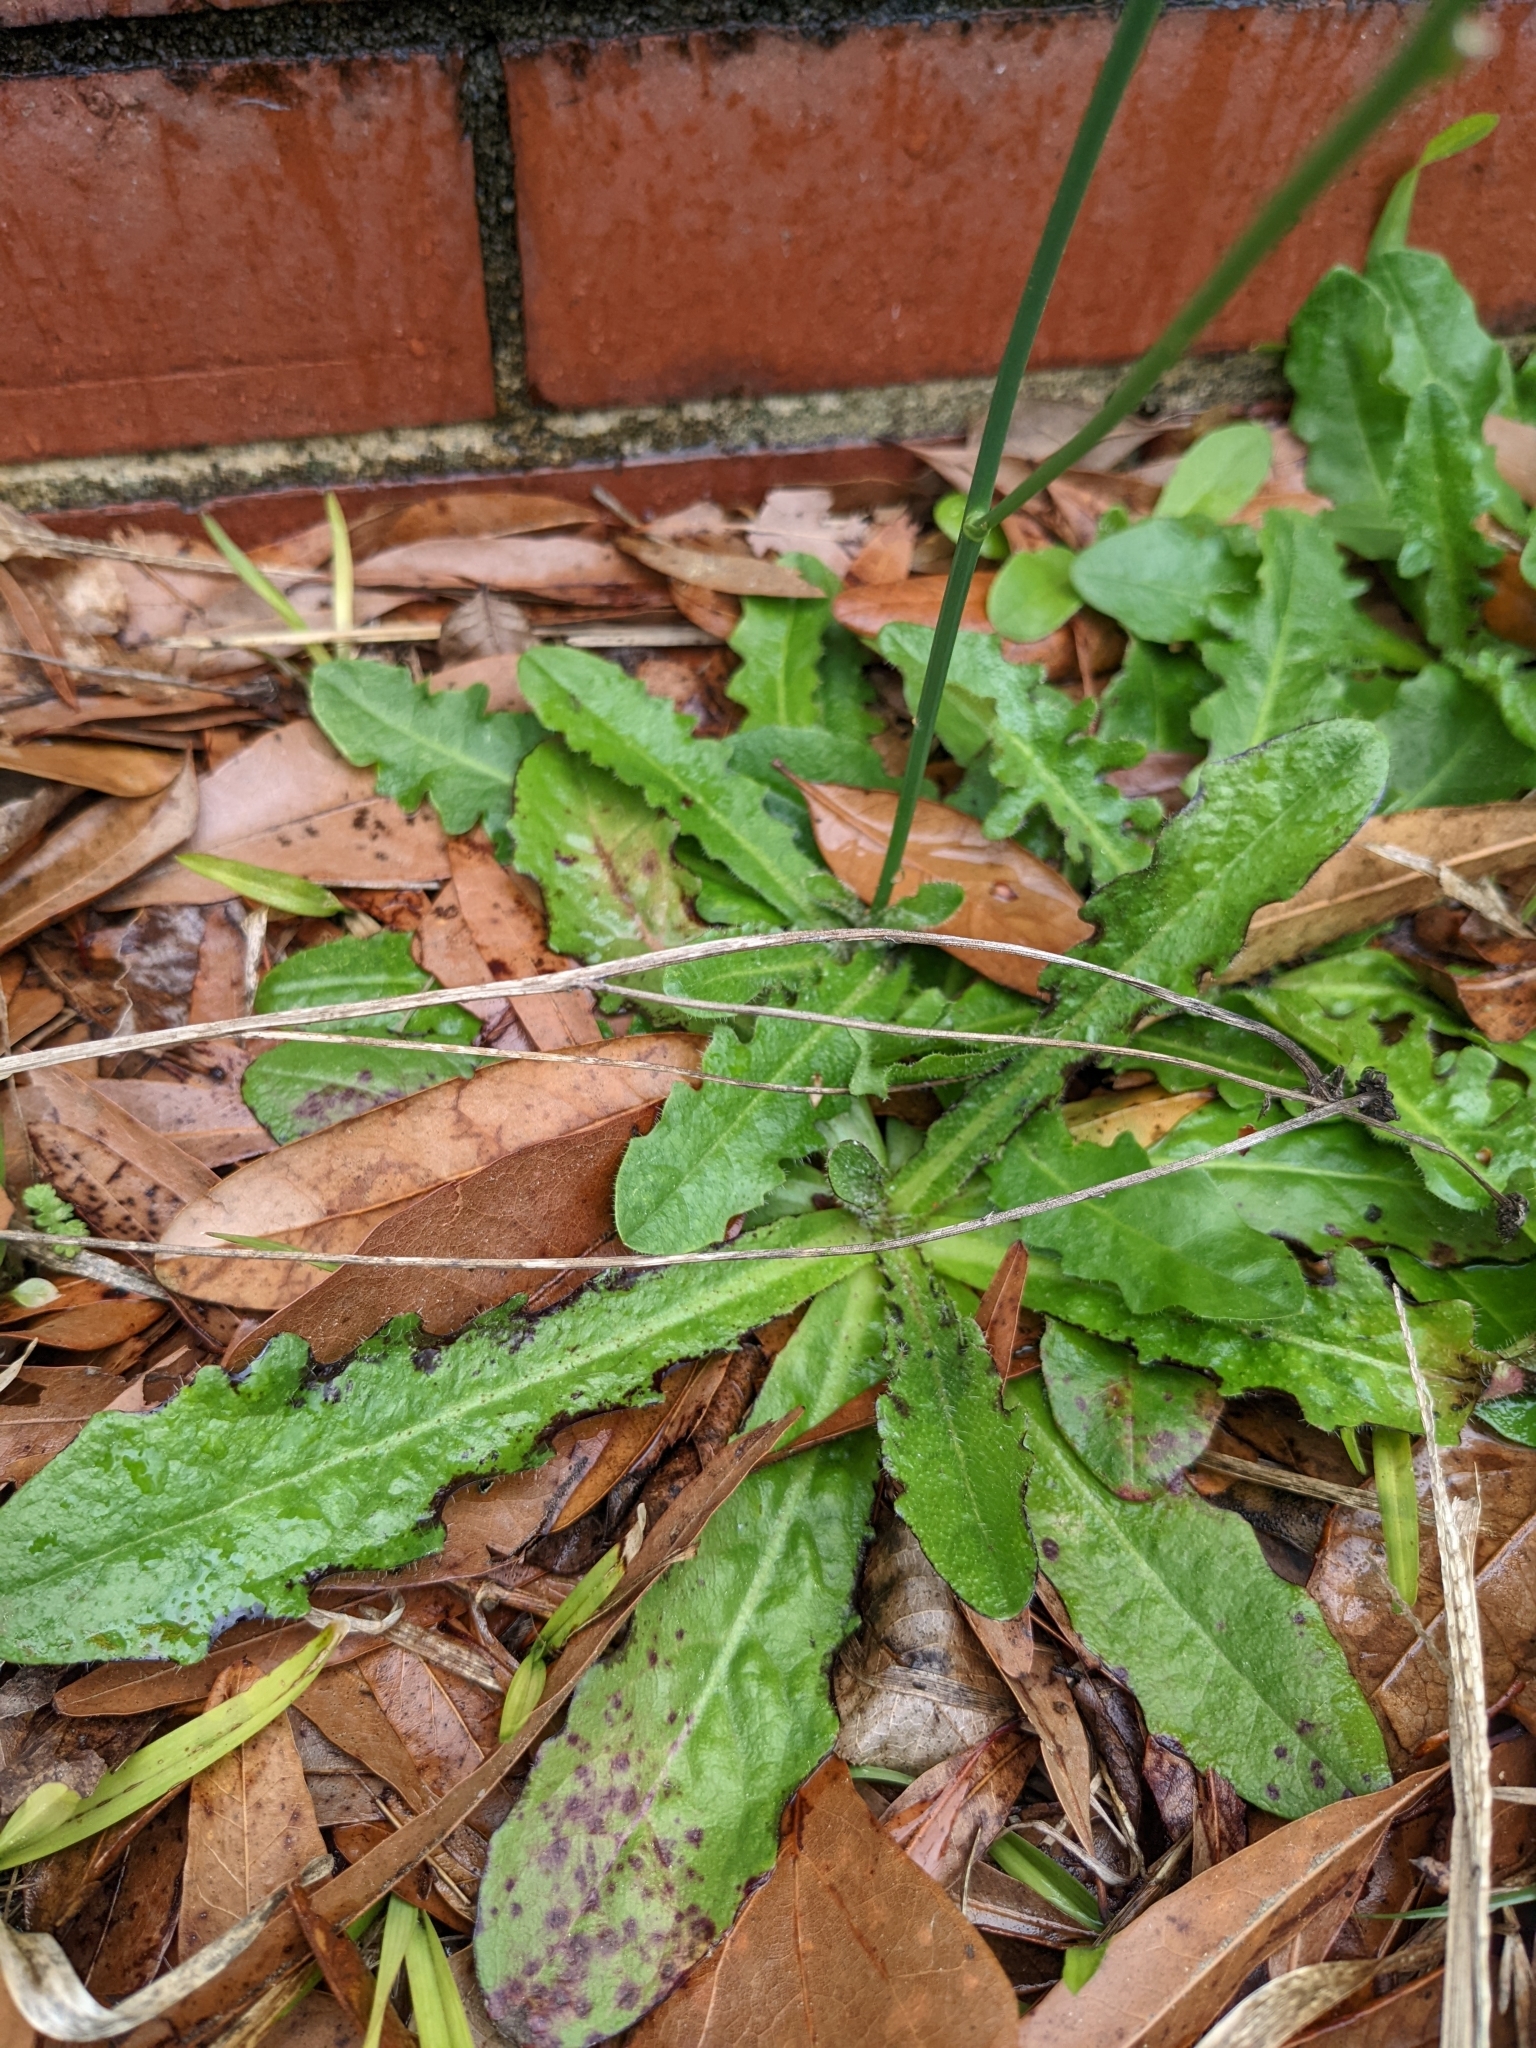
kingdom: Plantae
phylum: Tracheophyta
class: Magnoliopsida
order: Asterales
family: Asteraceae
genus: Hypochaeris
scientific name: Hypochaeris radicata
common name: Flatweed
